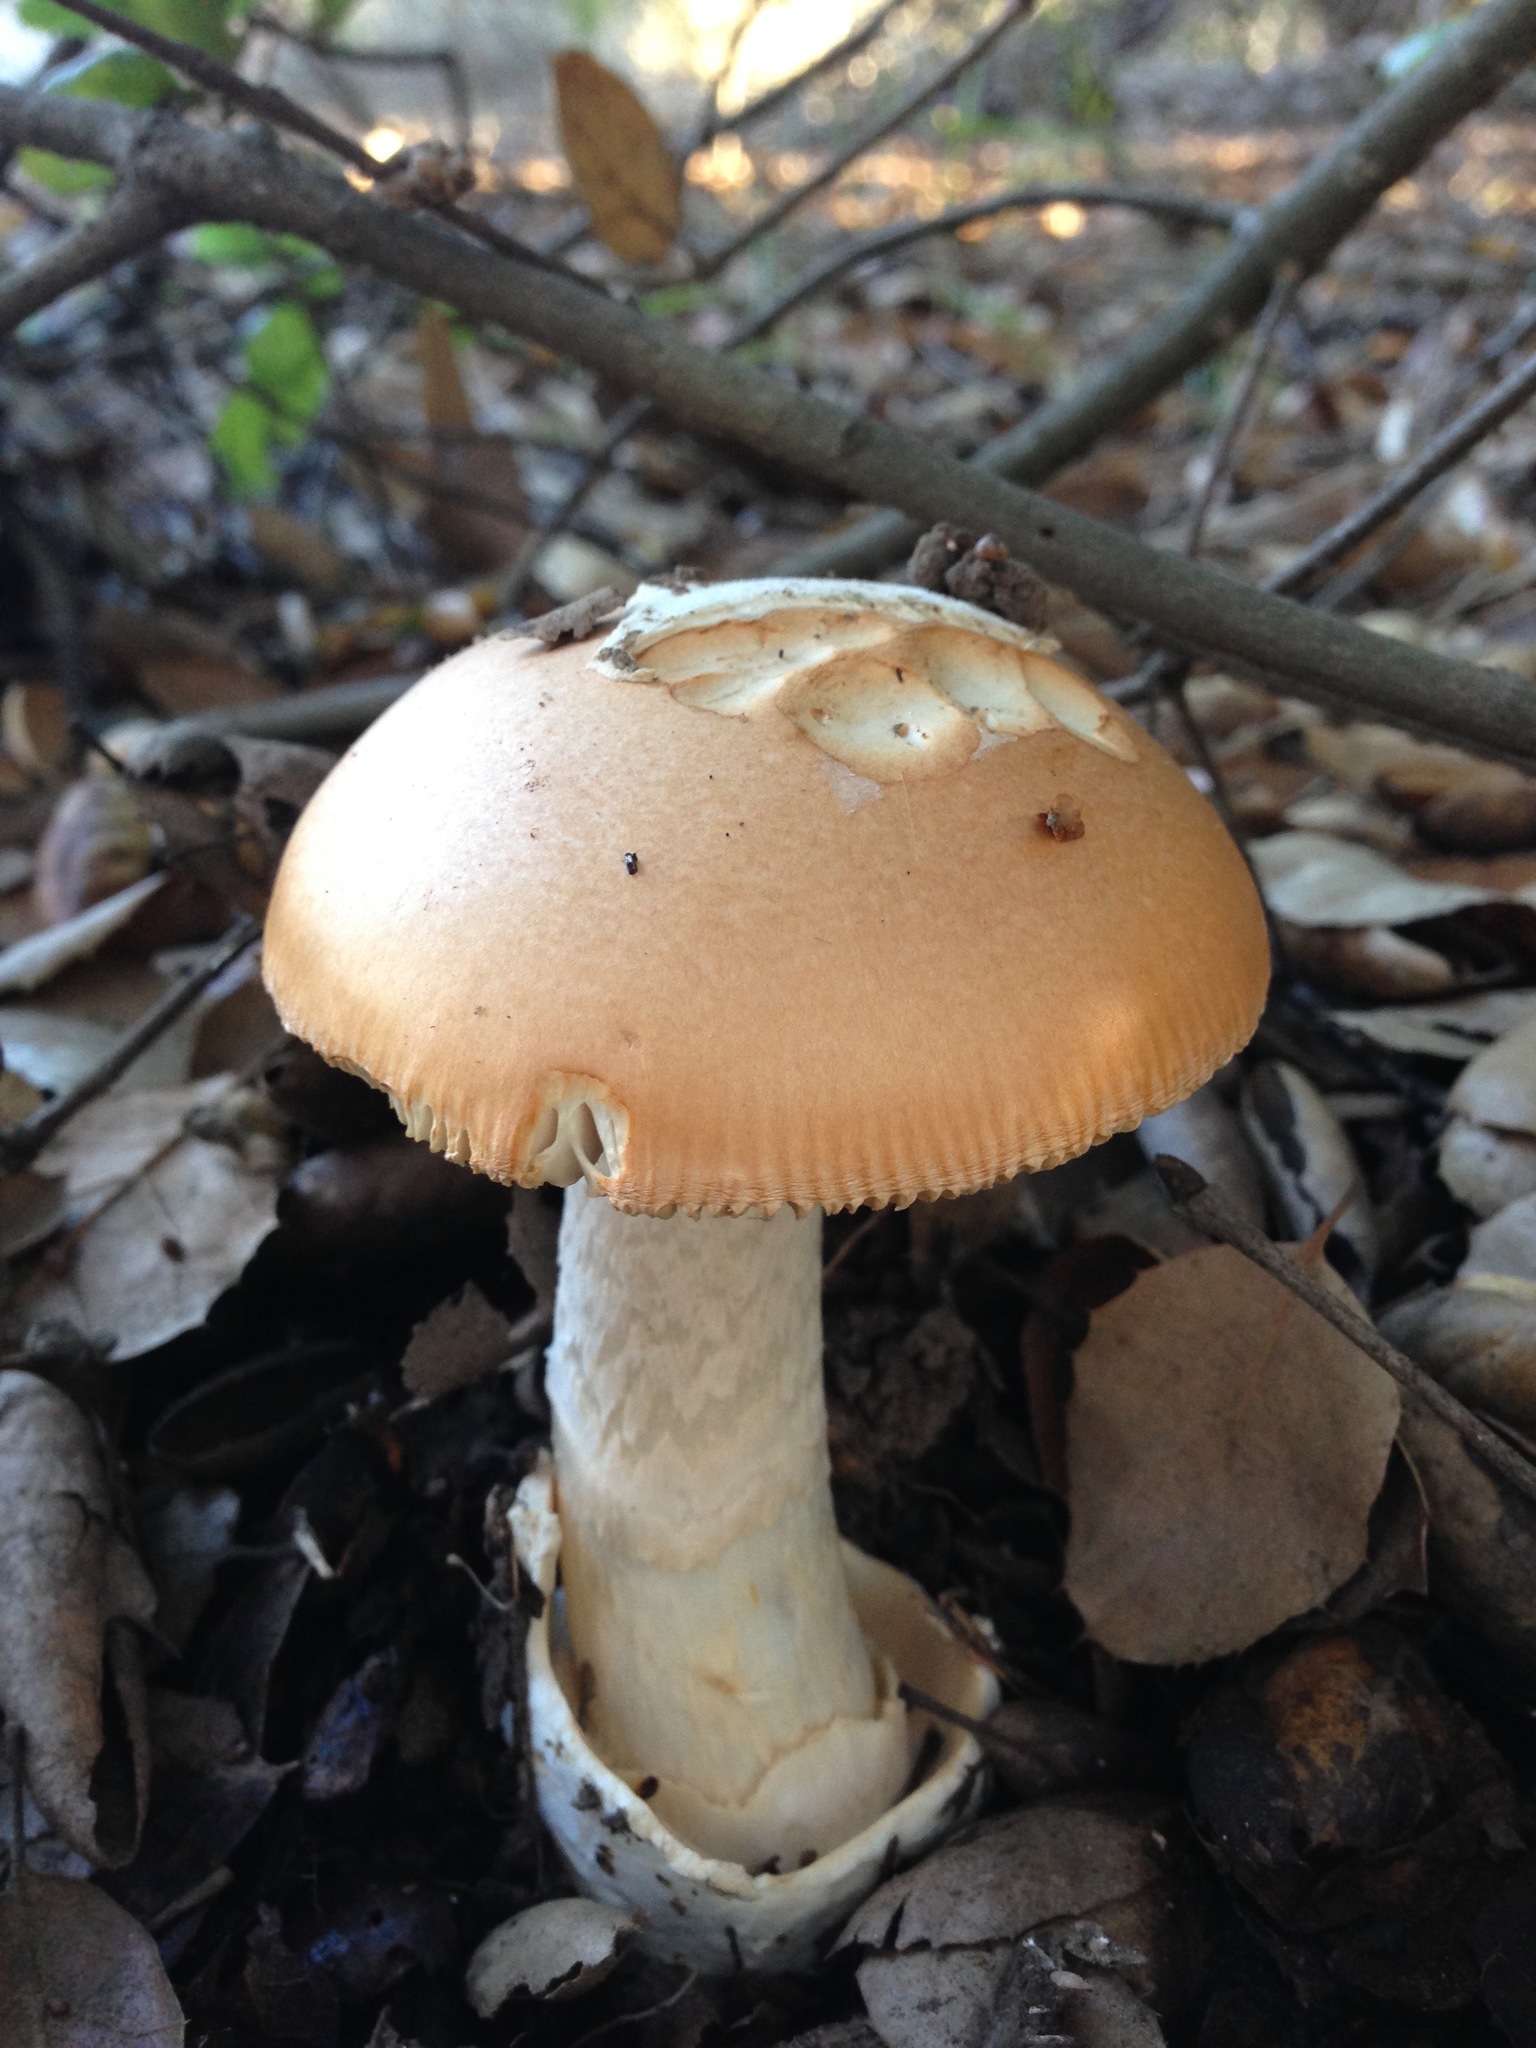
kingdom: Fungi
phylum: Basidiomycota
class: Agaricomycetes
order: Agaricales
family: Amanitaceae
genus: Amanita
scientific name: Amanita velosa
